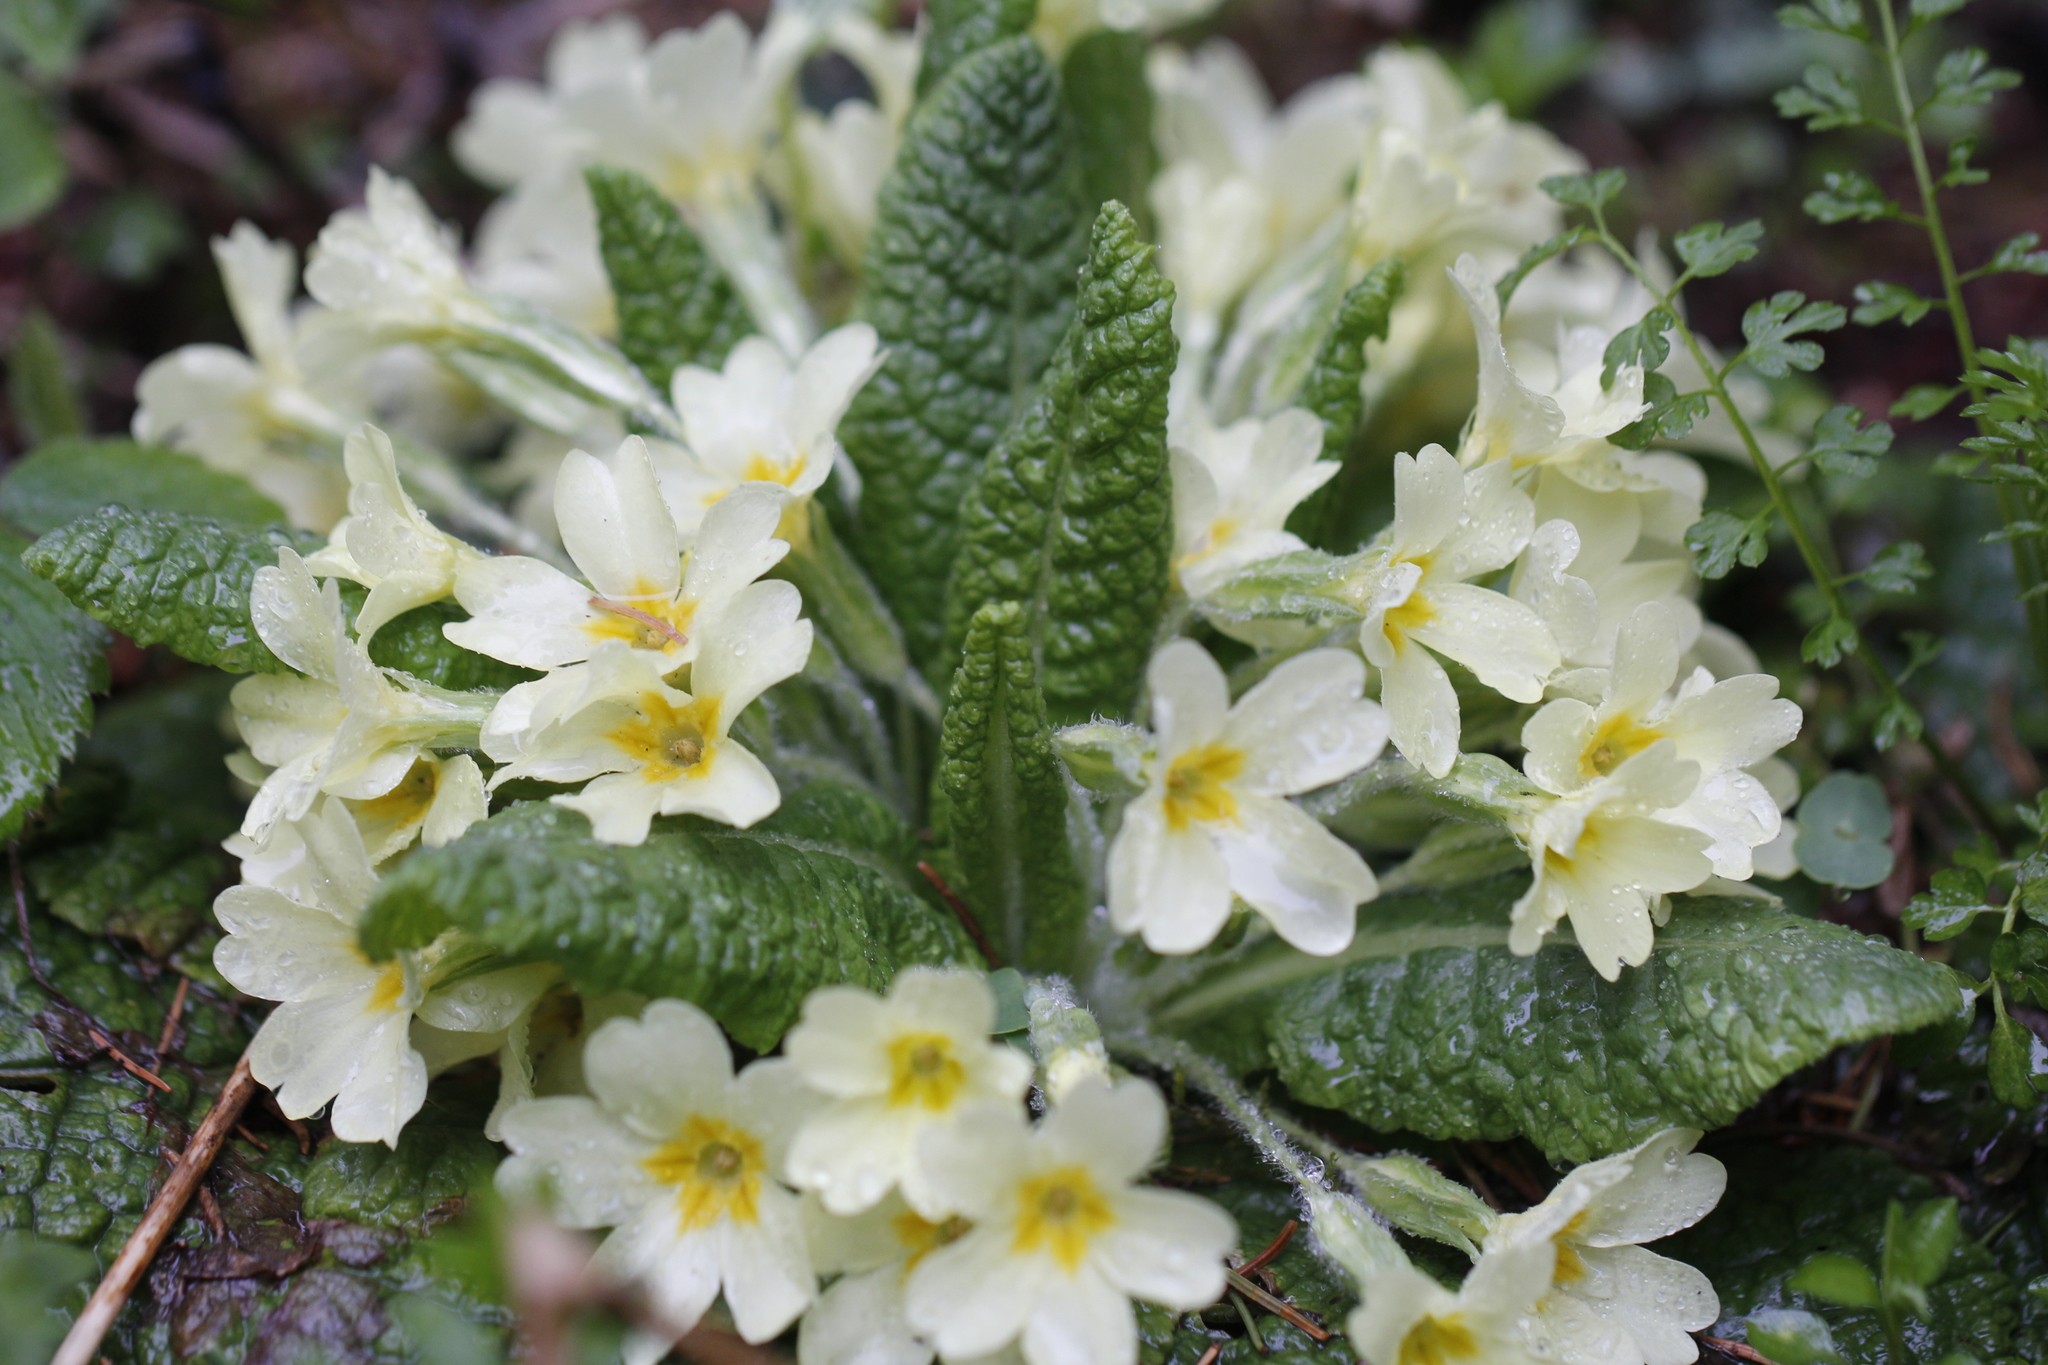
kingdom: Plantae
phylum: Tracheophyta
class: Magnoliopsida
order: Ericales
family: Primulaceae
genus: Primula
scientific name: Primula vulgaris
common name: Primrose
